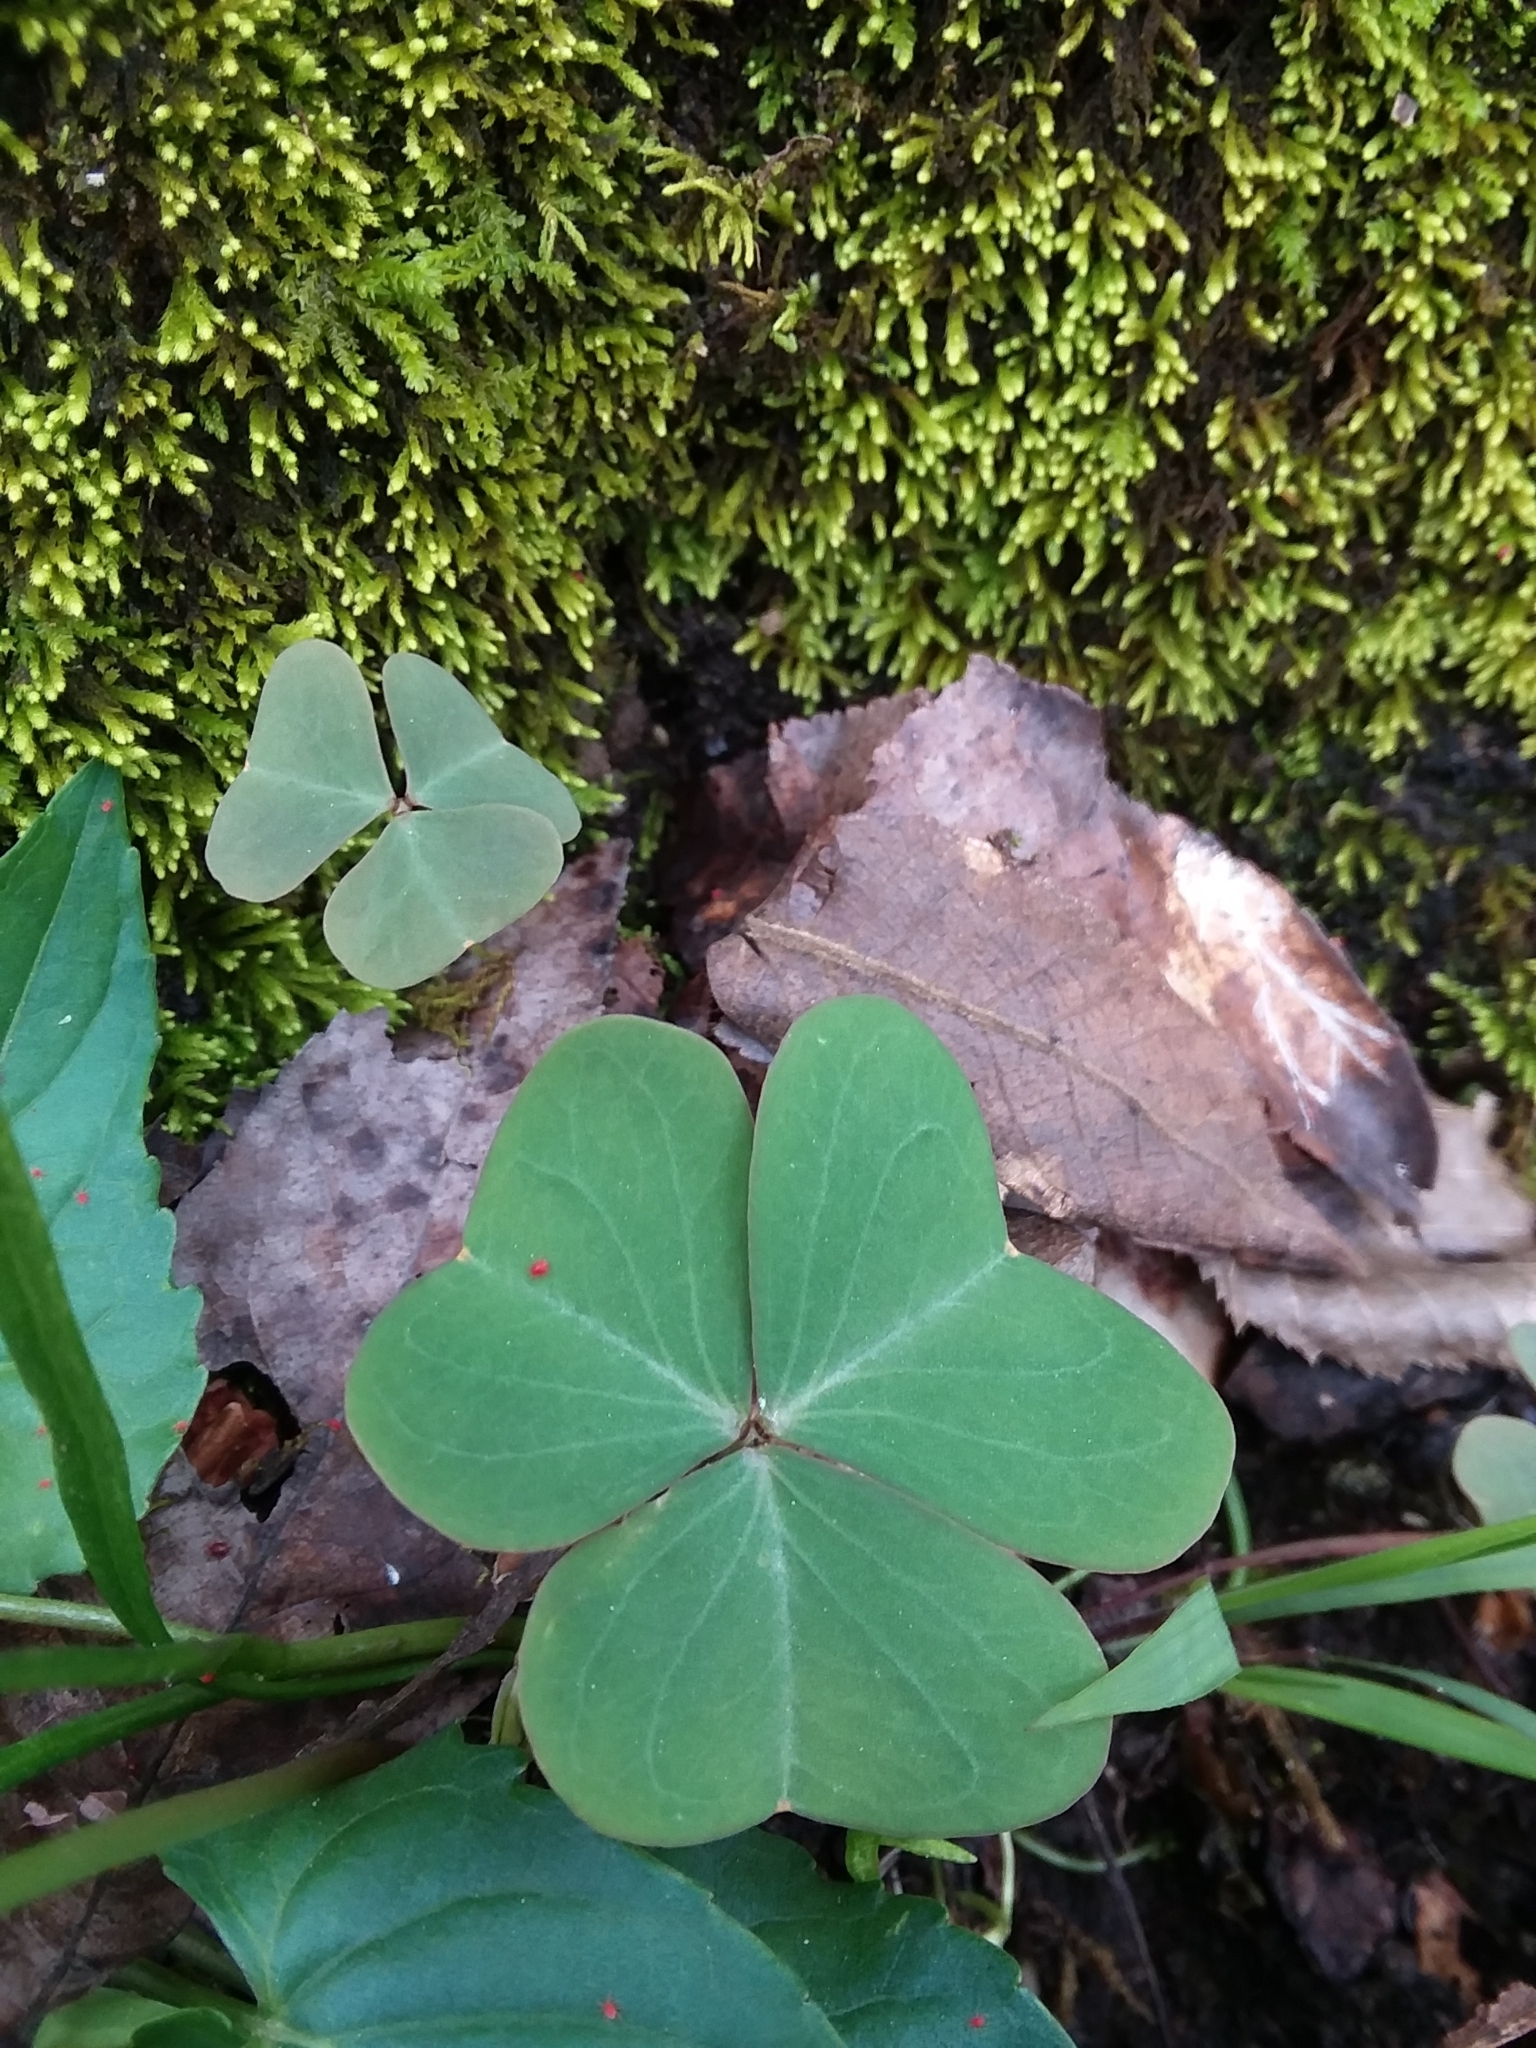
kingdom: Plantae
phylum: Tracheophyta
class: Magnoliopsida
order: Oxalidales
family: Oxalidaceae
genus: Oxalis
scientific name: Oxalis violacea
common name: Violet wood-sorrel
